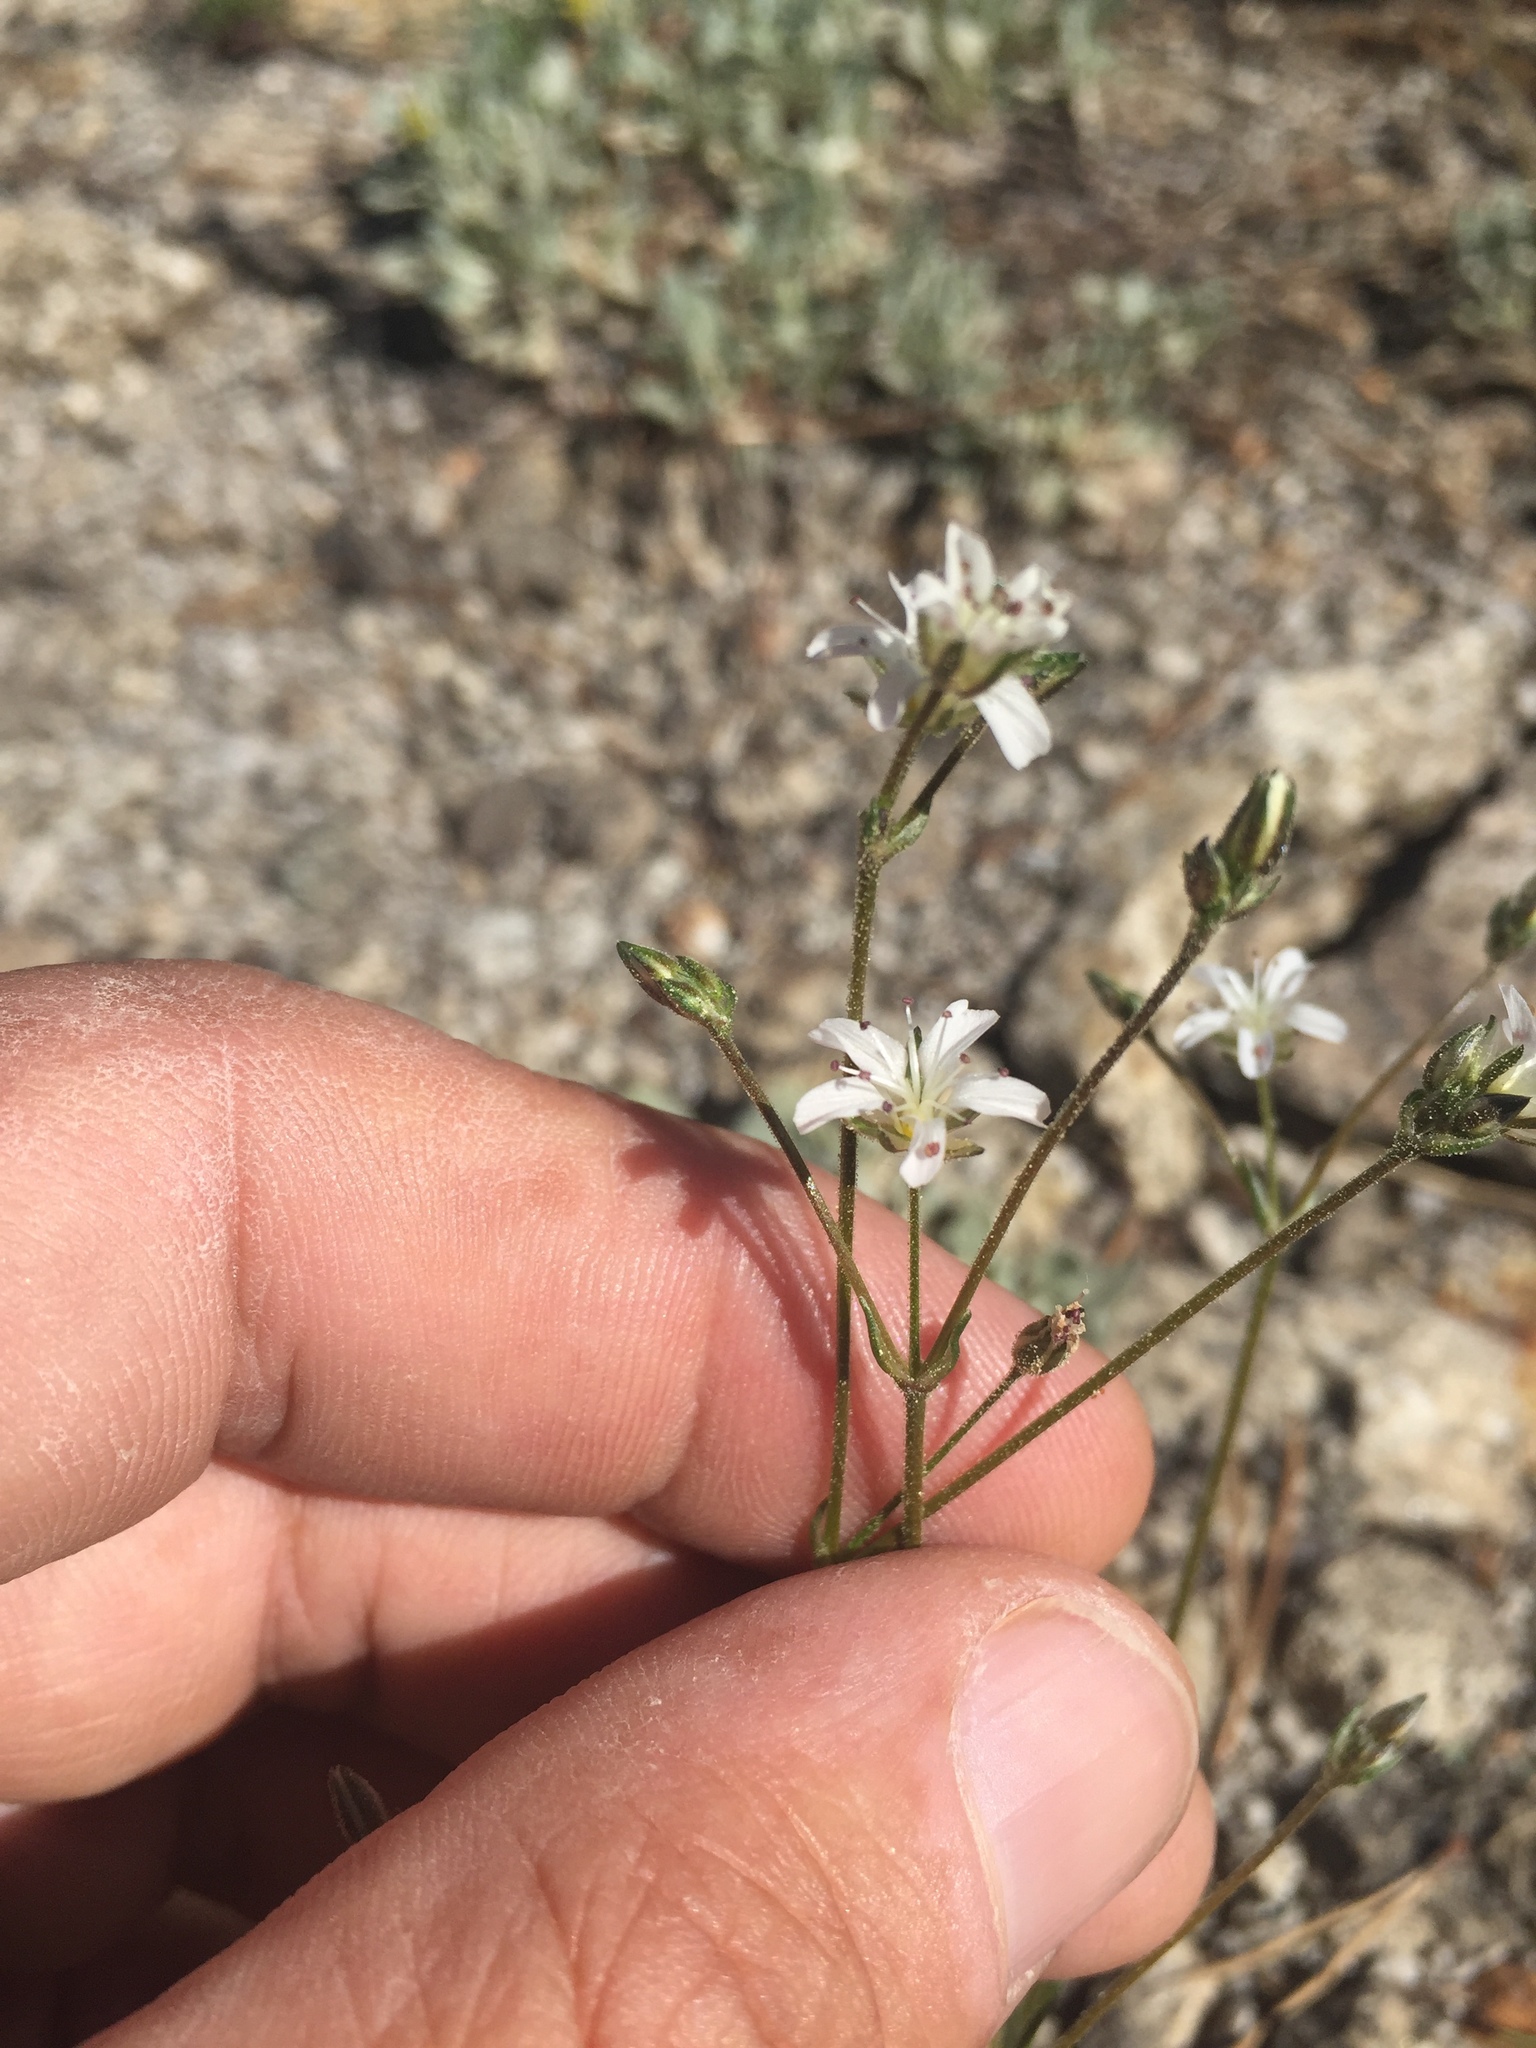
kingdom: Plantae
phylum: Tracheophyta
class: Magnoliopsida
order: Caryophyllales
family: Caryophyllaceae
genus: Eremogone
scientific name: Eremogone kingii
